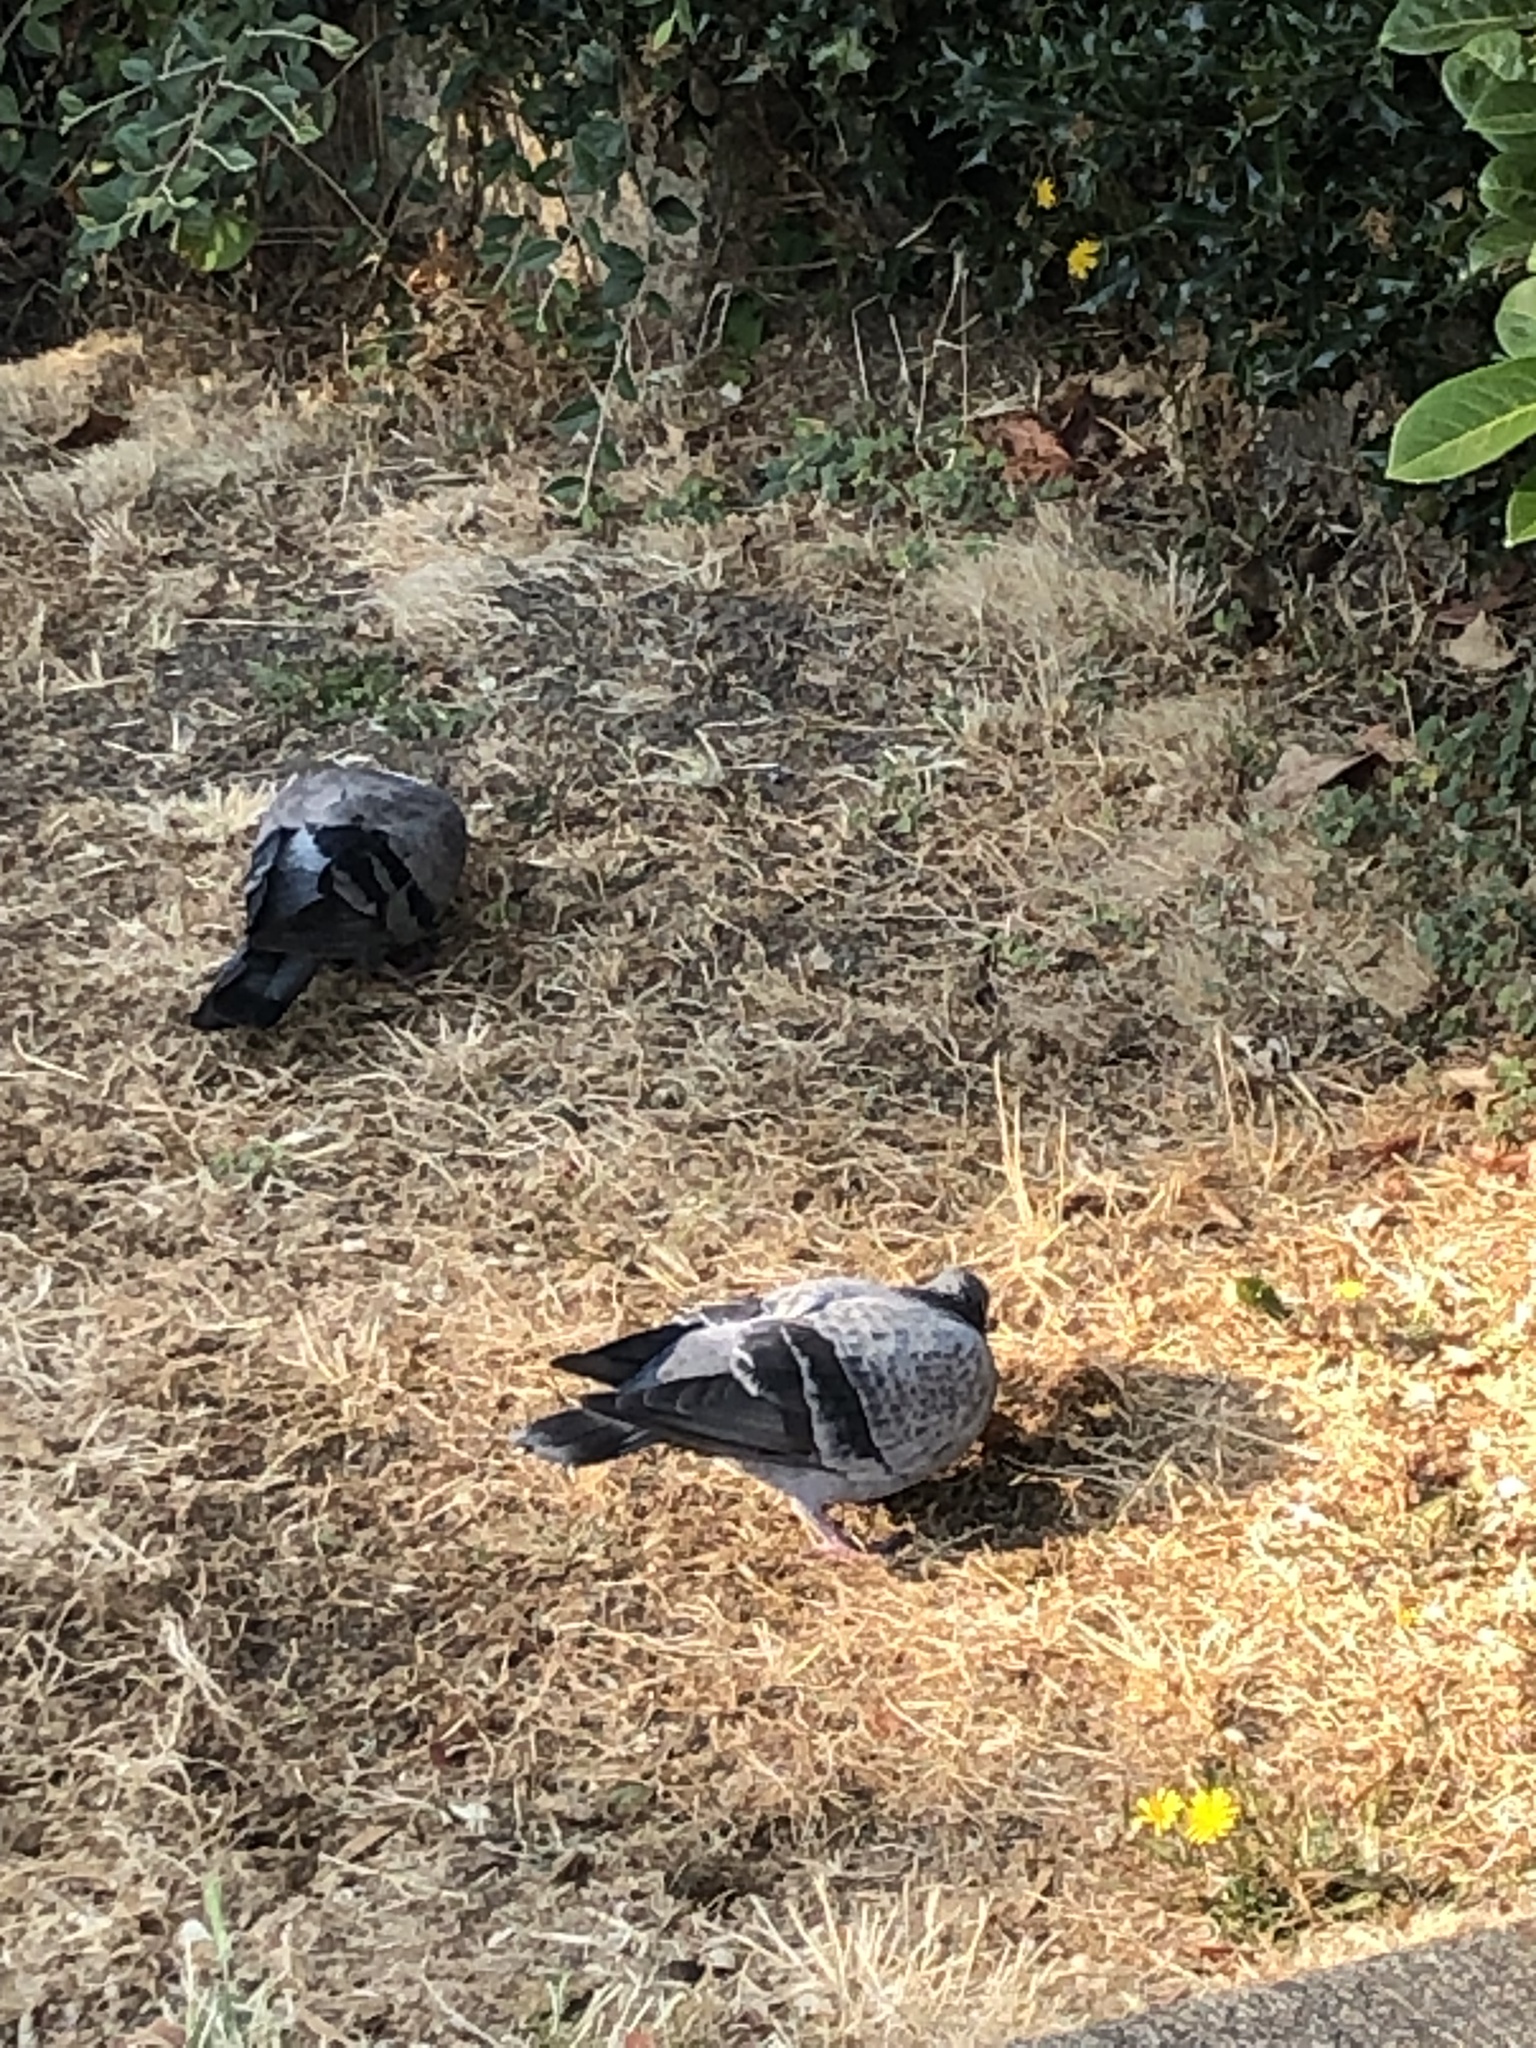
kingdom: Animalia
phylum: Chordata
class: Aves
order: Columbiformes
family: Columbidae
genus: Columba
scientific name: Columba livia
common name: Rock pigeon
